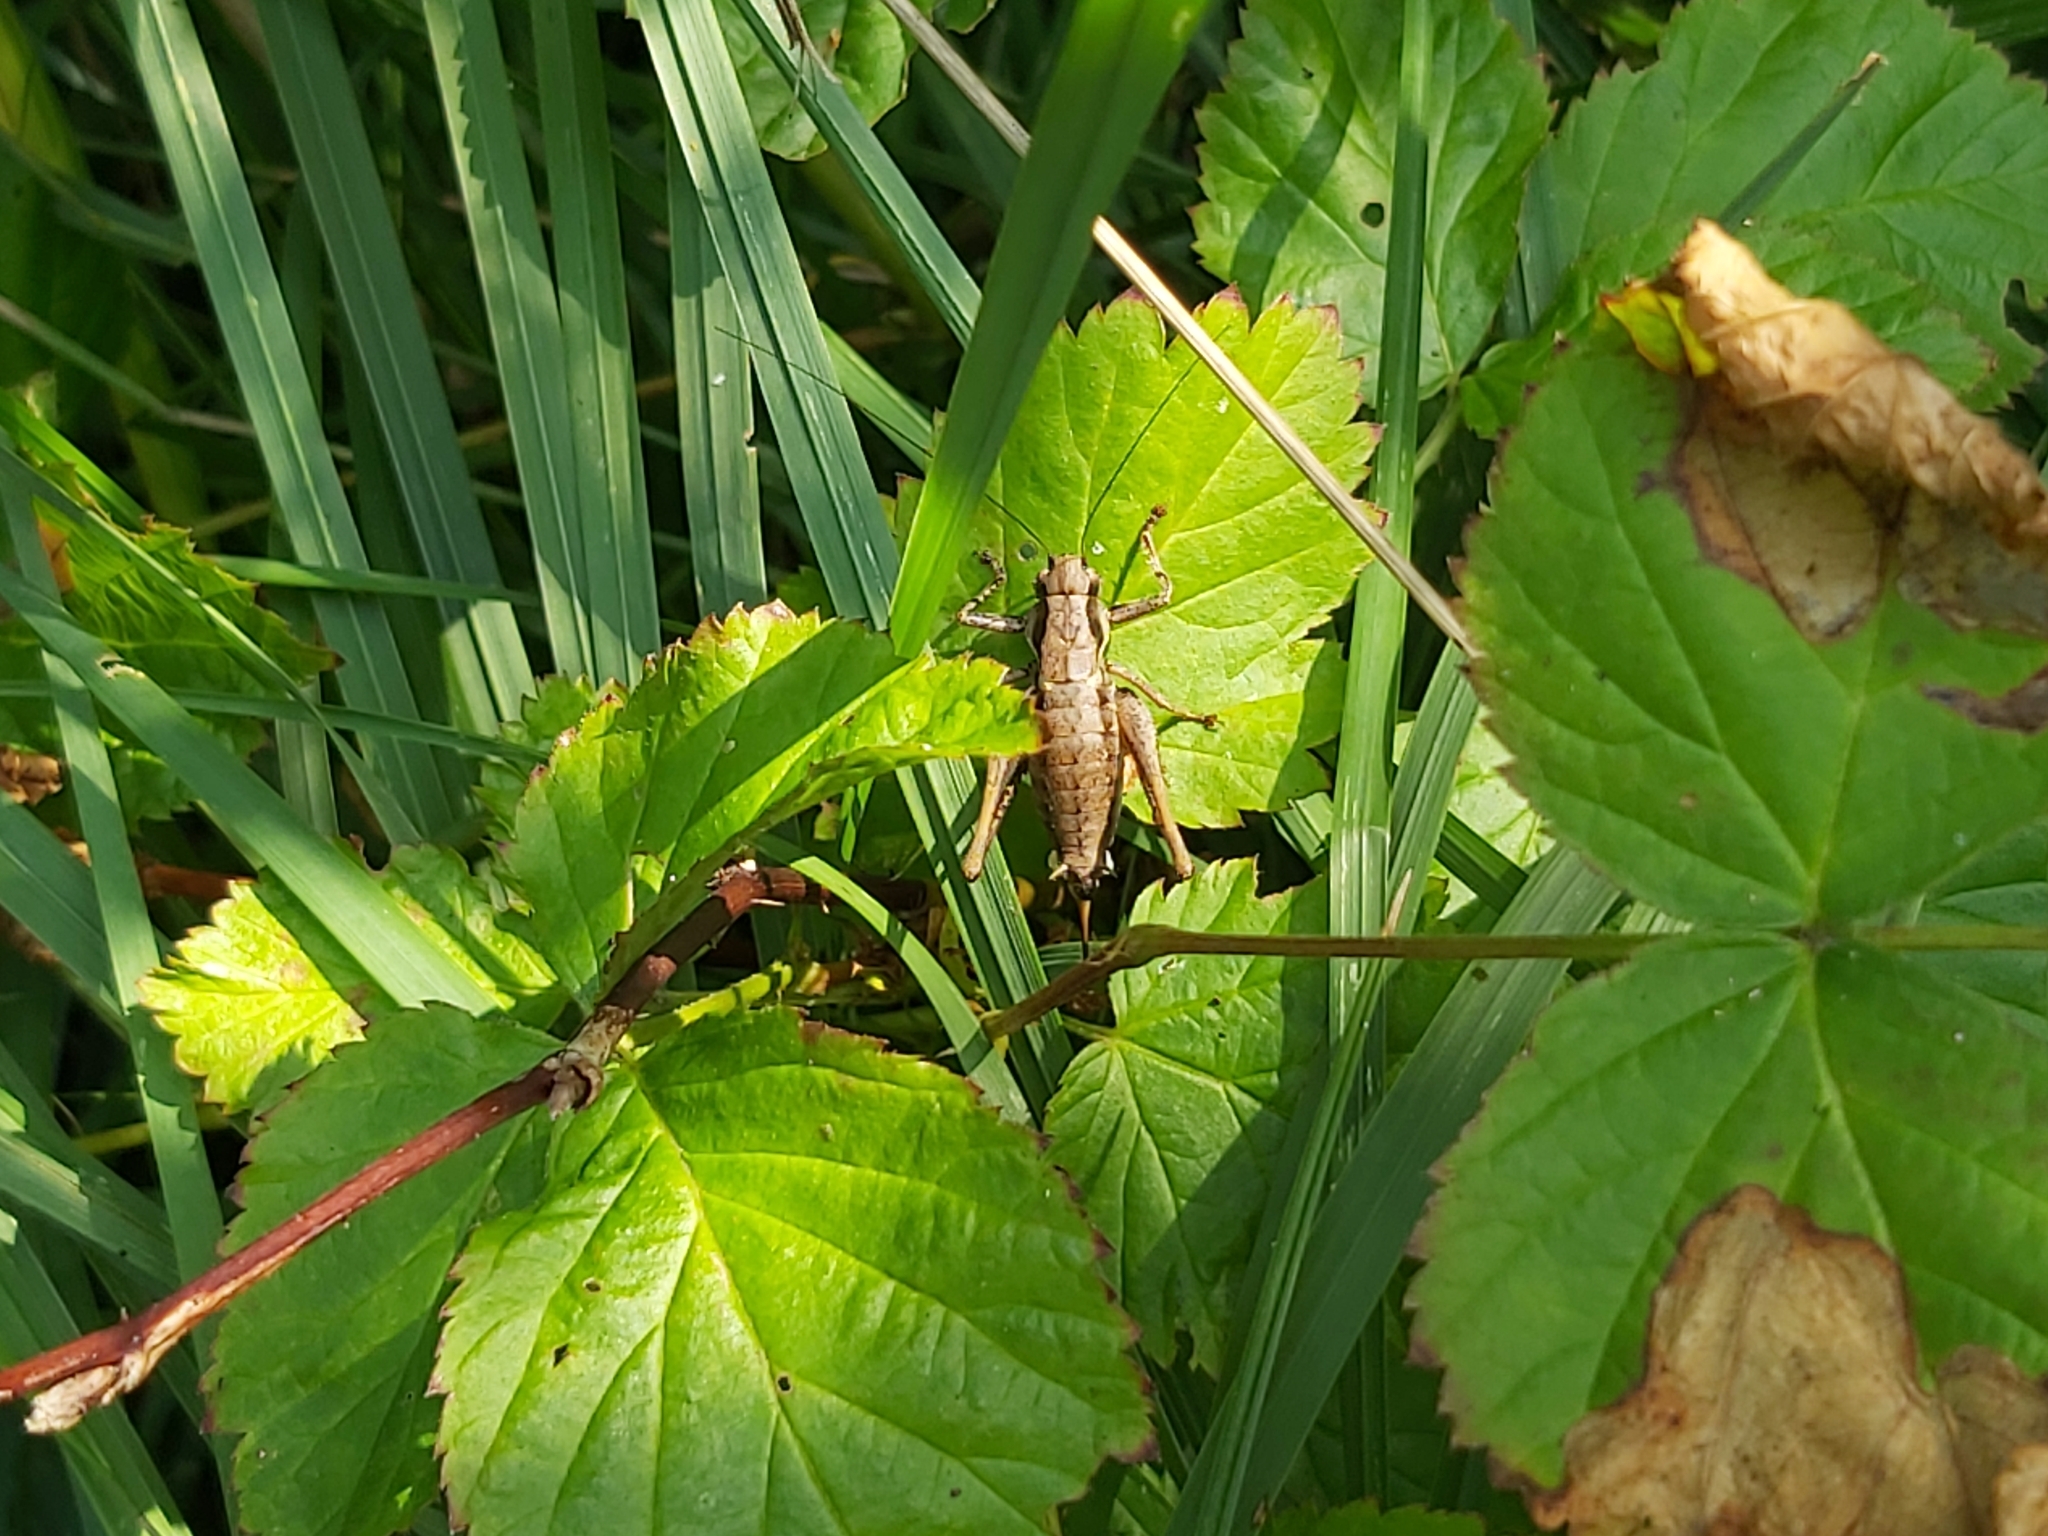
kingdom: Animalia
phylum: Arthropoda
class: Insecta
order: Orthoptera
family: Tettigoniidae
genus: Pholidoptera
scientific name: Pholidoptera griseoaptera
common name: Dark bush-cricket
